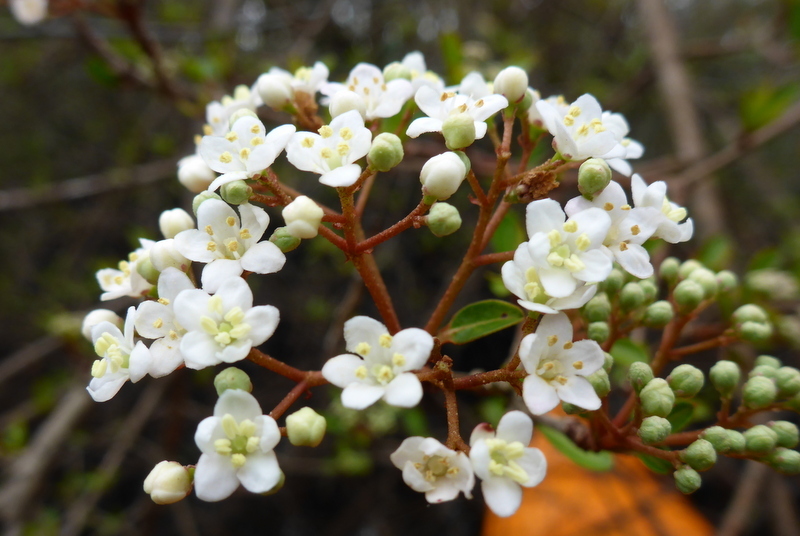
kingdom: Plantae
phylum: Tracheophyta
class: Magnoliopsida
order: Dipsacales
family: Viburnaceae
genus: Viburnum
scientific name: Viburnum obovatum
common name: Walter's viburnum
